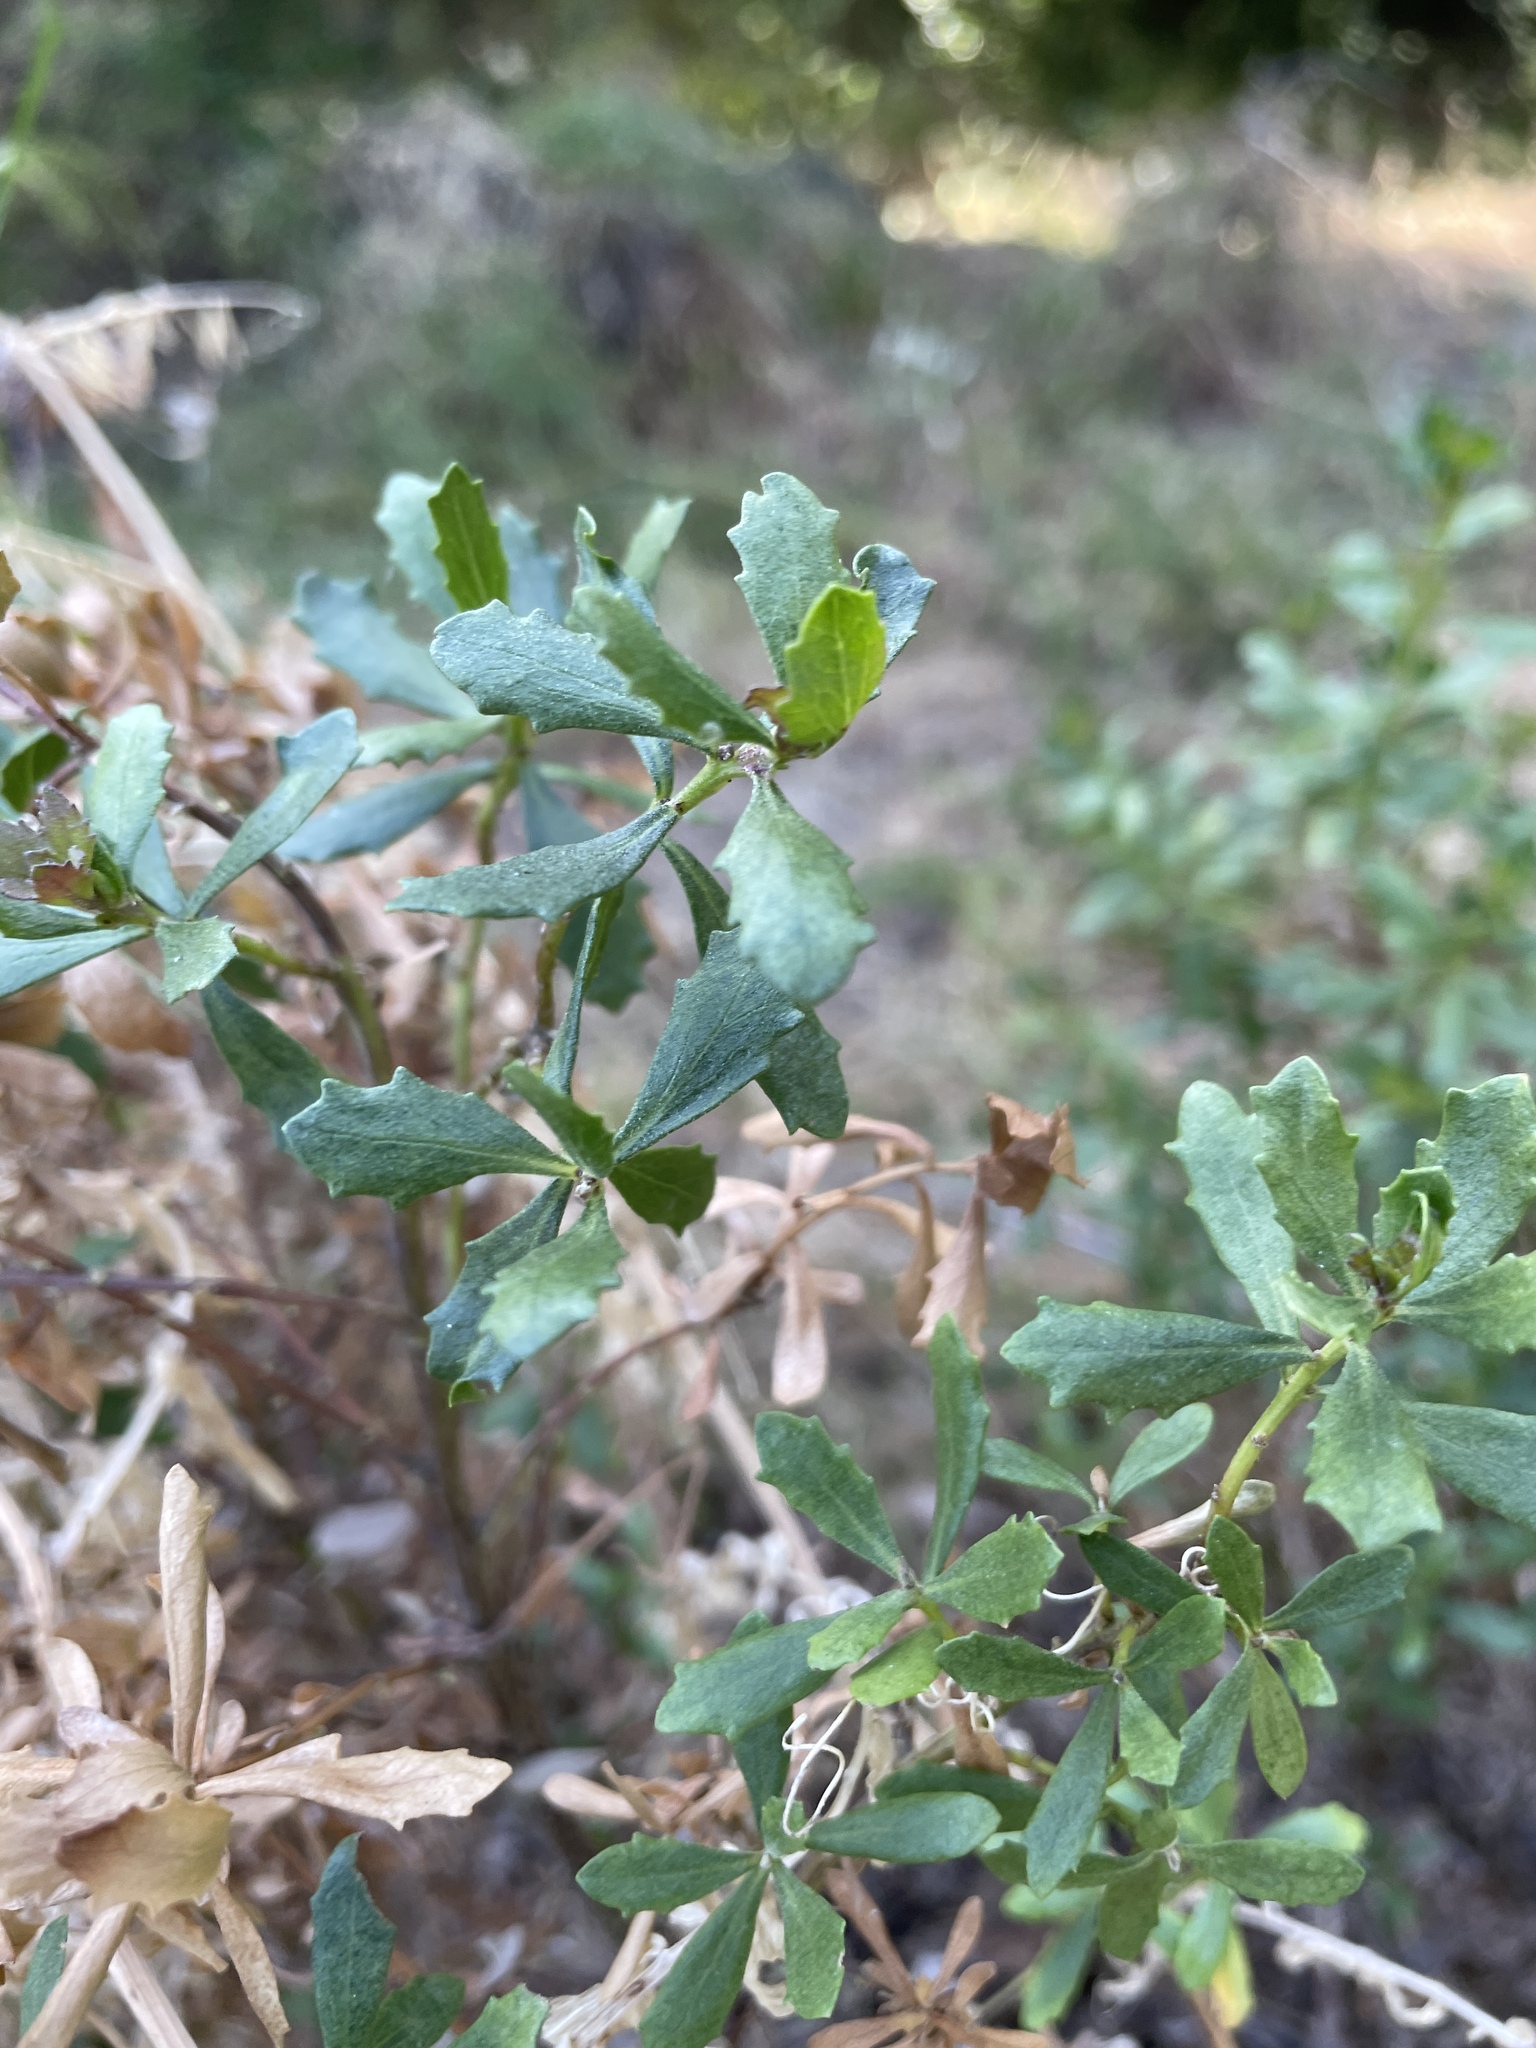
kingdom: Plantae
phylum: Tracheophyta
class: Magnoliopsida
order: Asterales
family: Asteraceae
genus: Baccharis
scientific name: Baccharis pilularis
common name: Coyotebrush
